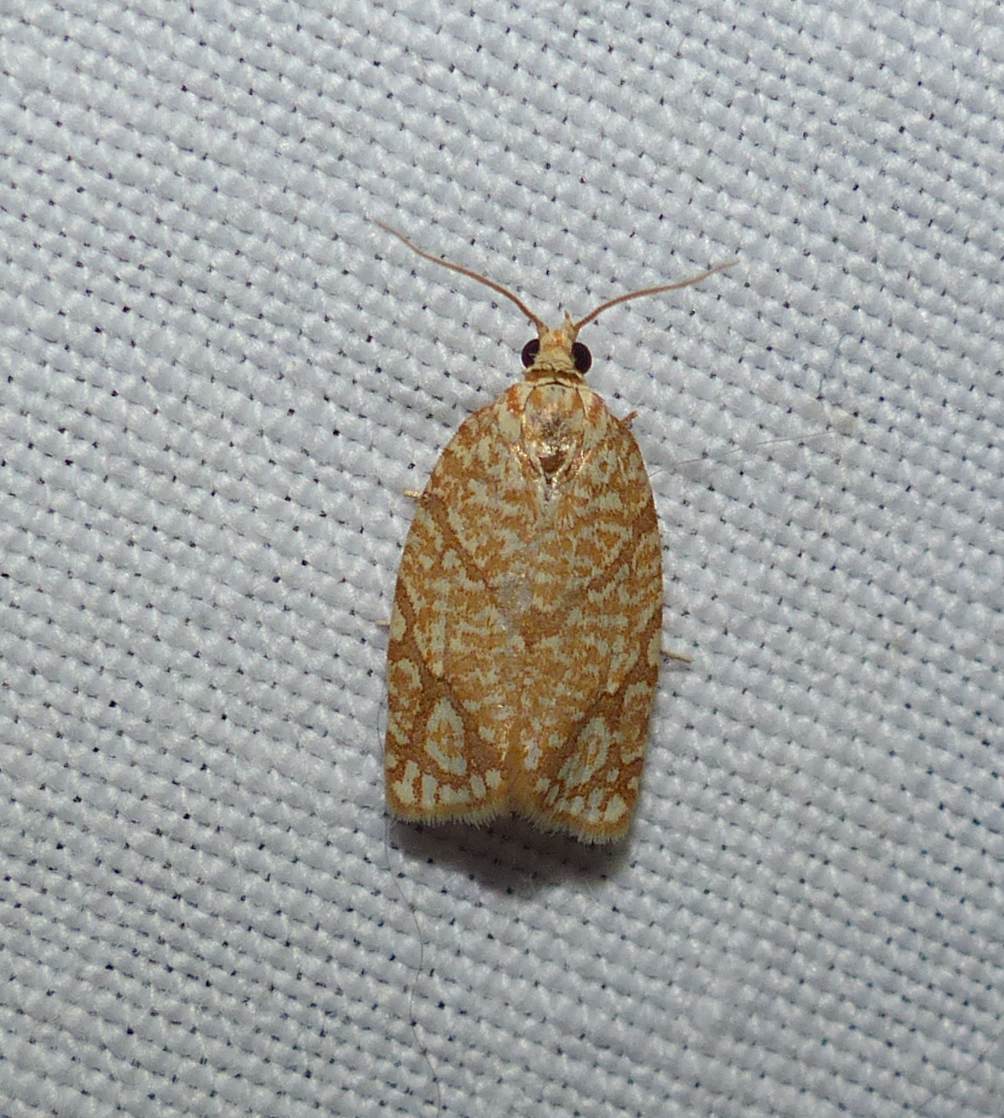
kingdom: Animalia
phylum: Arthropoda
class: Insecta
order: Lepidoptera
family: Tortricidae
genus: Argyrotaenia
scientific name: Argyrotaenia quercifoliana
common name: Yellow-winged oak leafroller moth
